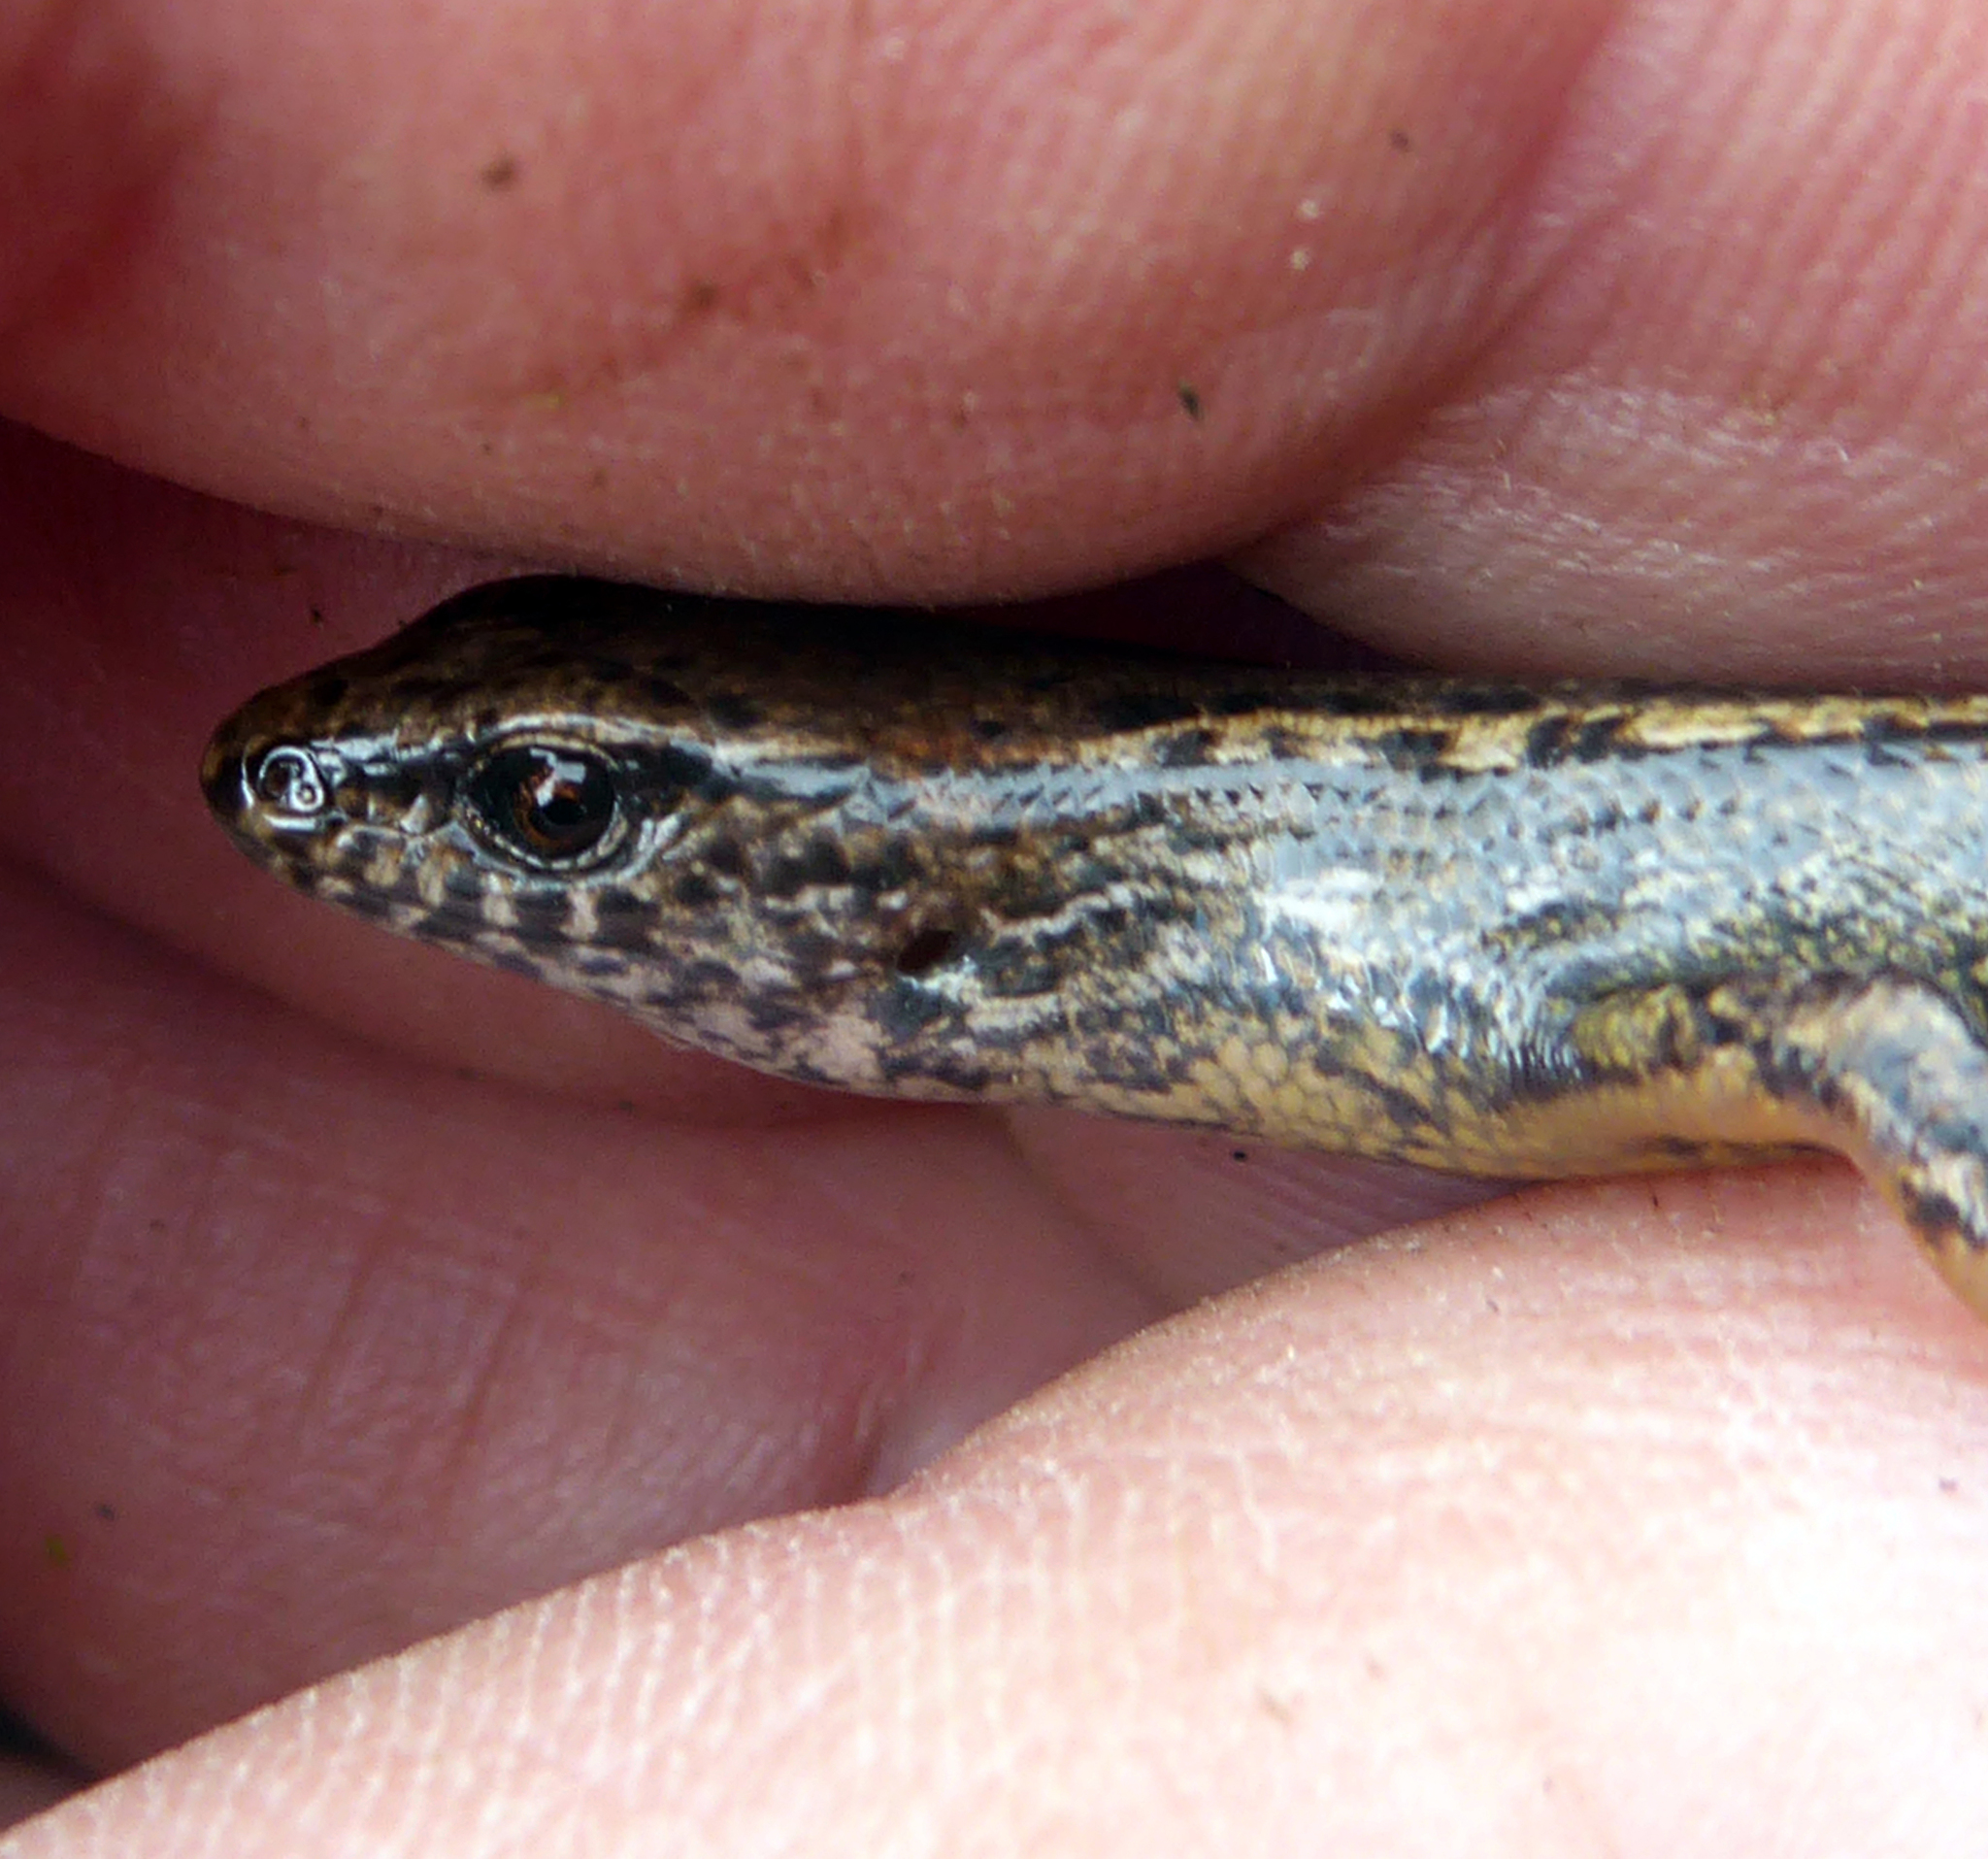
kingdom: Animalia
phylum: Chordata
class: Squamata
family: Scincidae
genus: Oligosoma
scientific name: Oligosoma aeneum
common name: Copper skink
